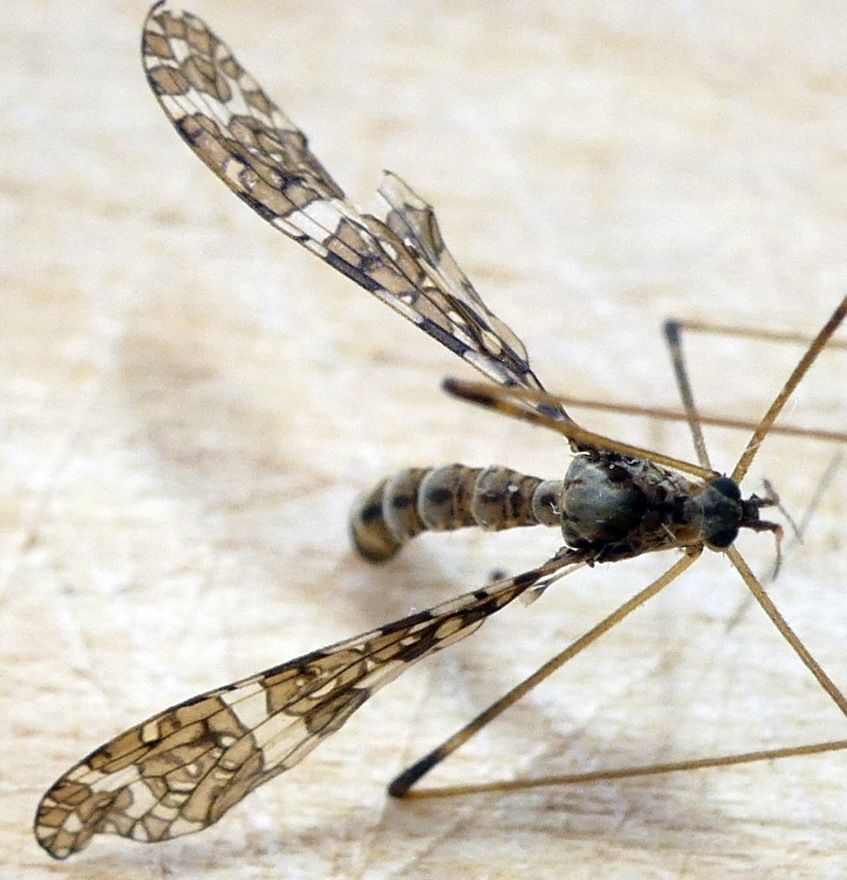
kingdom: Animalia
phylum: Arthropoda
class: Insecta
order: Diptera
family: Limoniidae
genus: Epiphragma
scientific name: Epiphragma fasciapenne
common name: Band-winged crane fly
